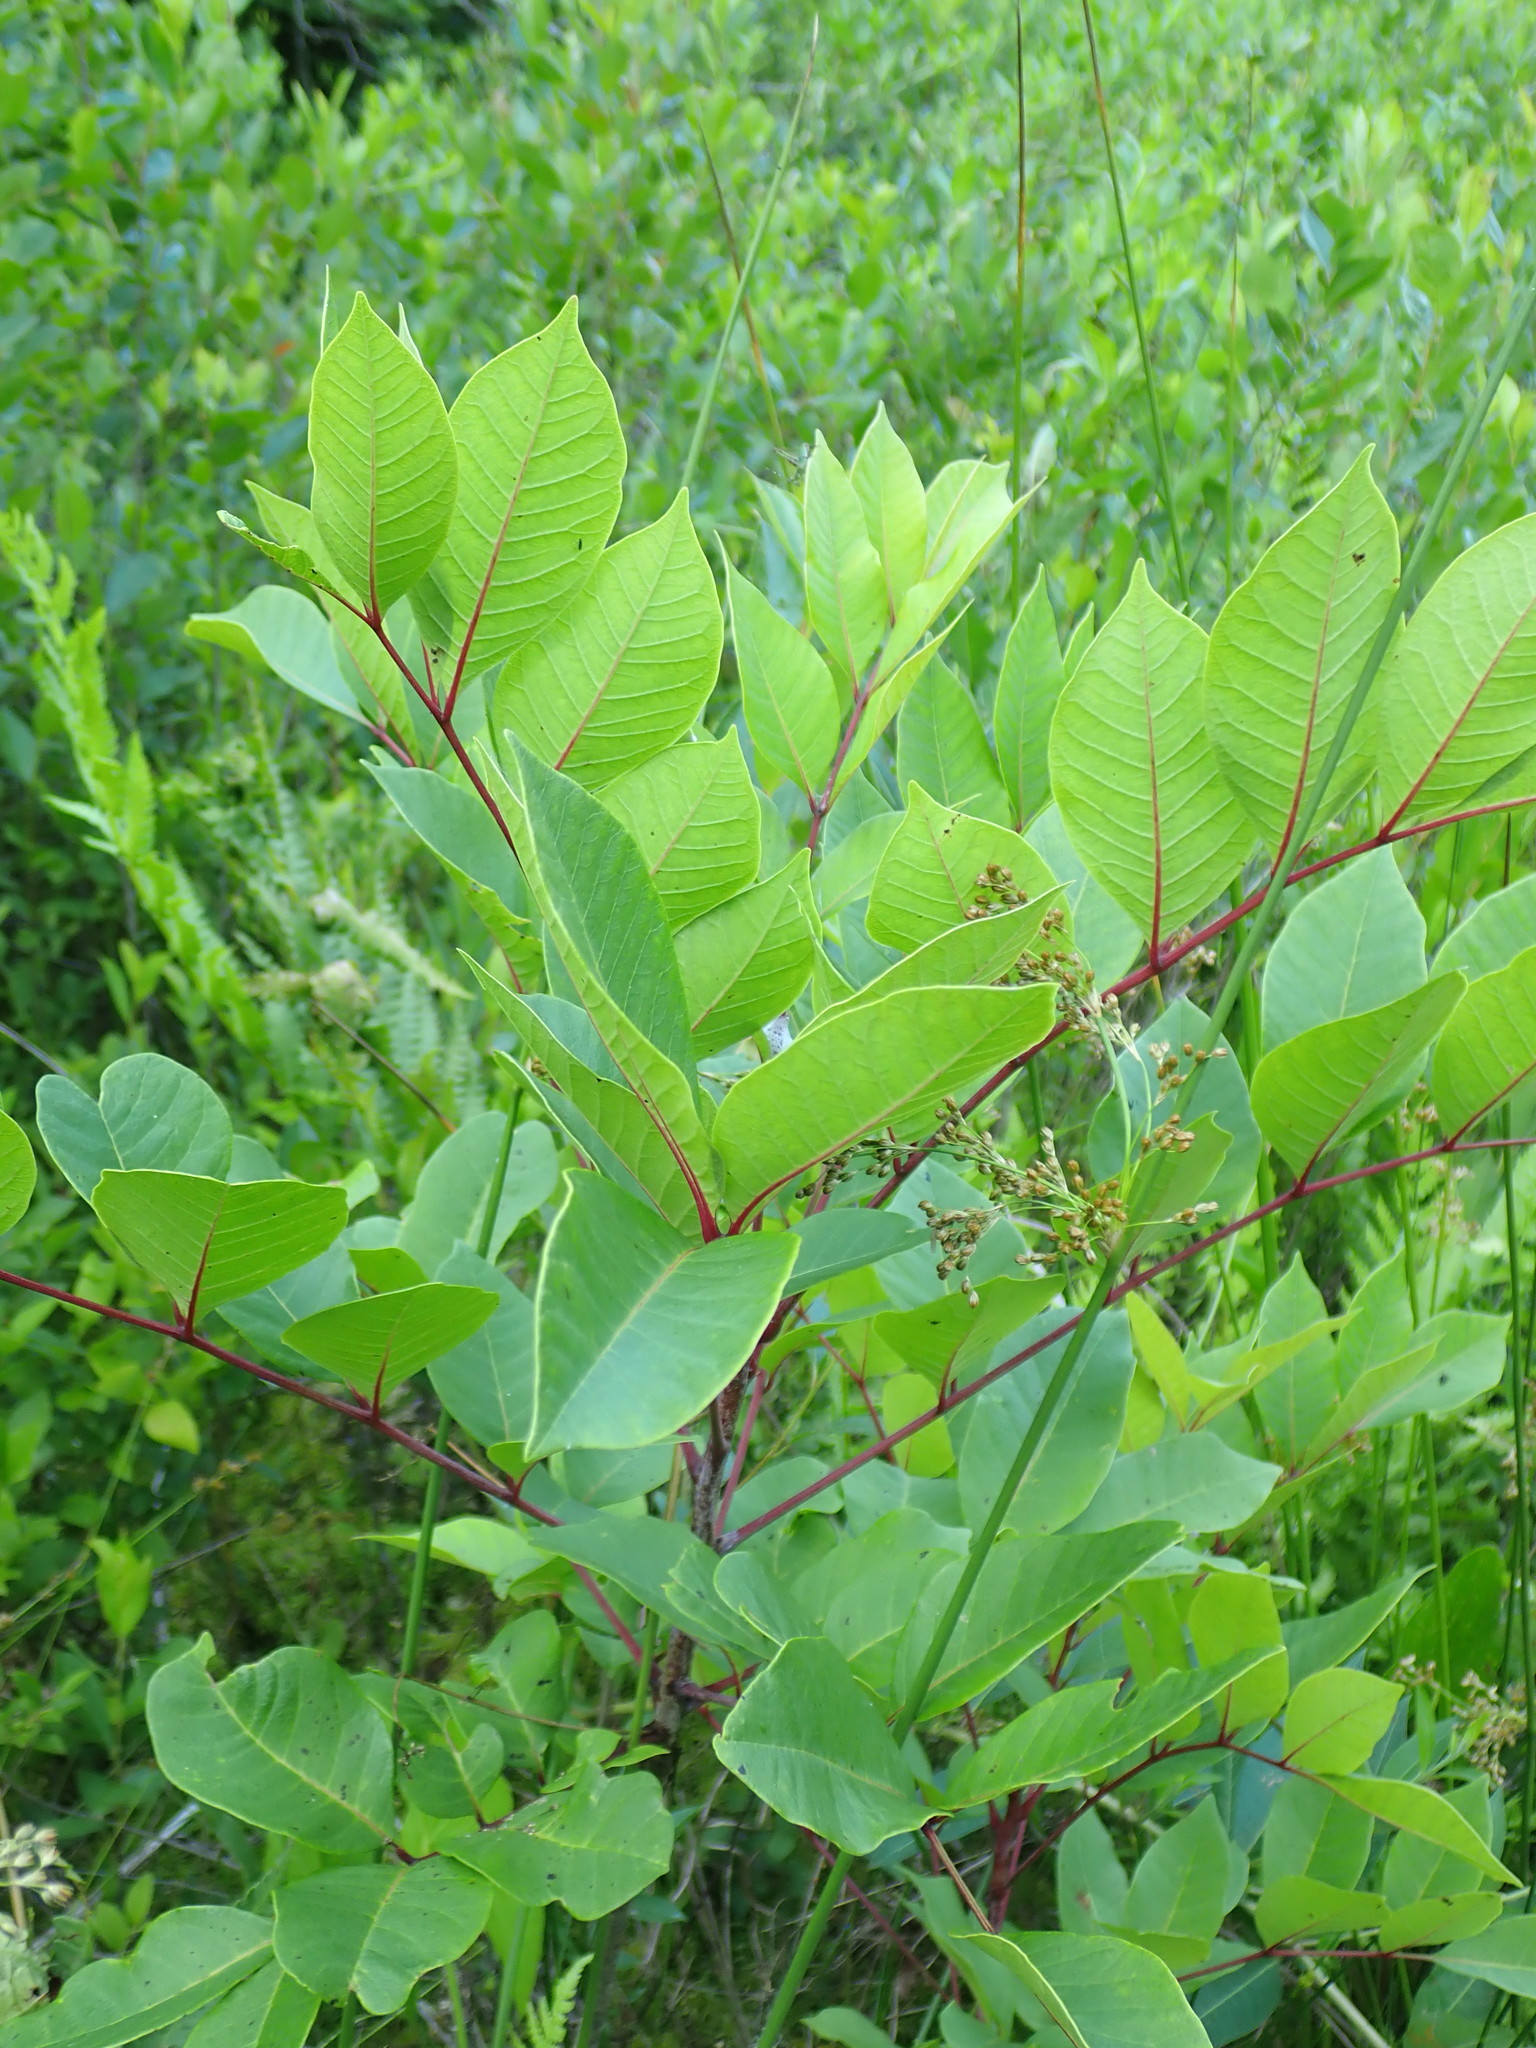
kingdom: Plantae
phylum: Tracheophyta
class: Magnoliopsida
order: Sapindales
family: Anacardiaceae
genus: Toxicodendron
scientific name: Toxicodendron vernix
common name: Poison sumac
